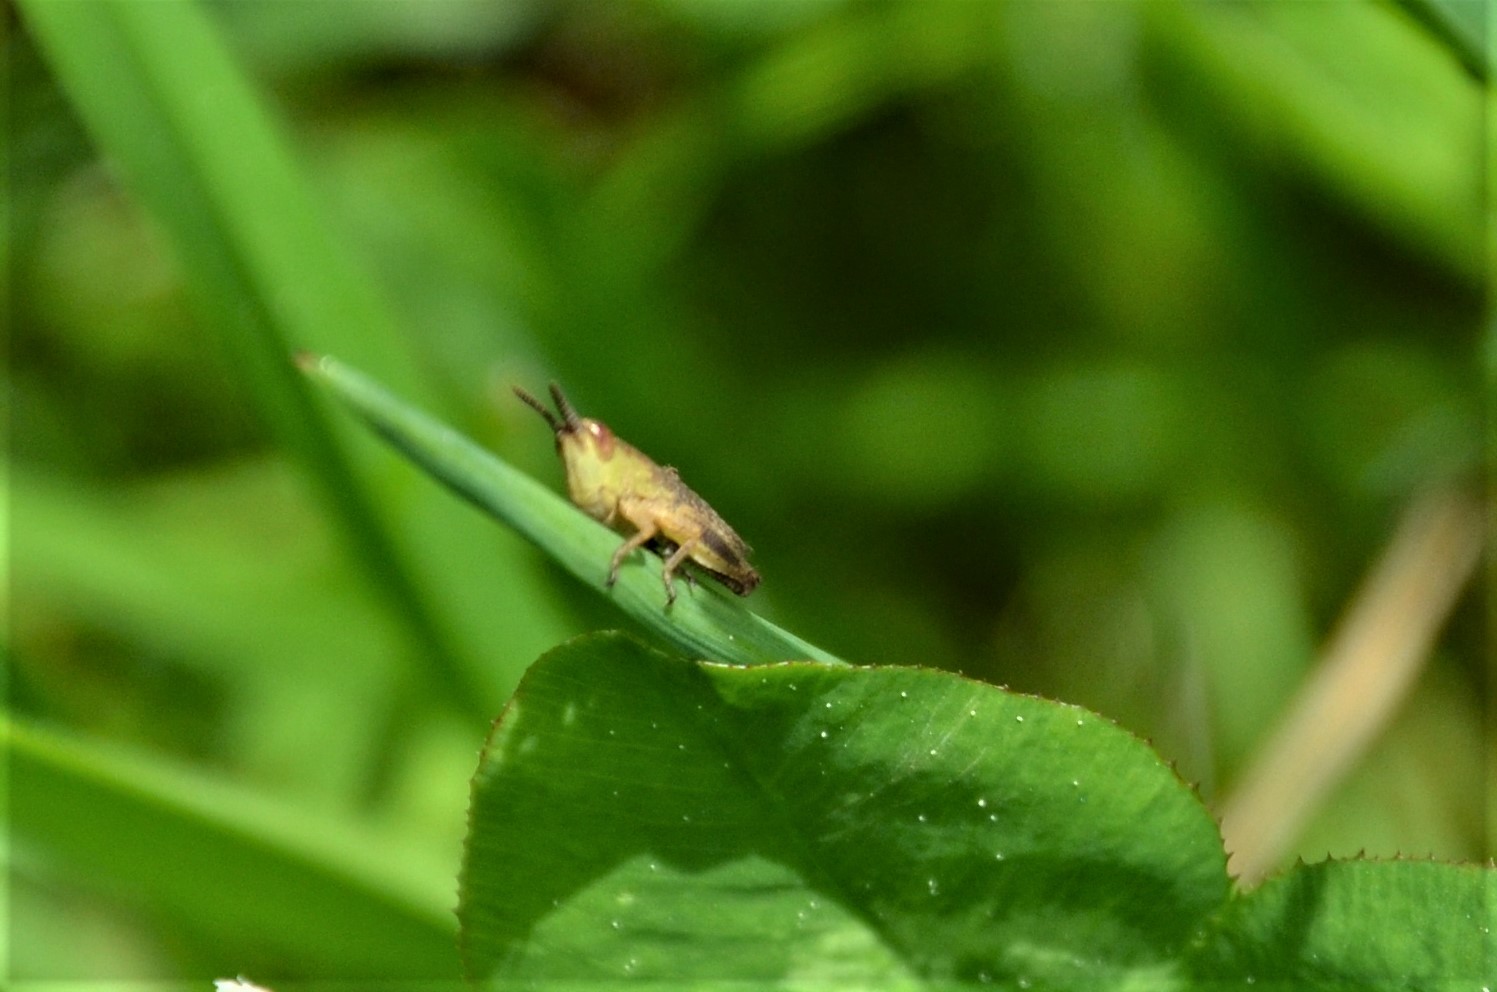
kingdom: Animalia
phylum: Arthropoda
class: Insecta
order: Orthoptera
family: Acrididae
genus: Pseudochorthippus
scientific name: Pseudochorthippus parallelus
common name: Meadow grasshopper
